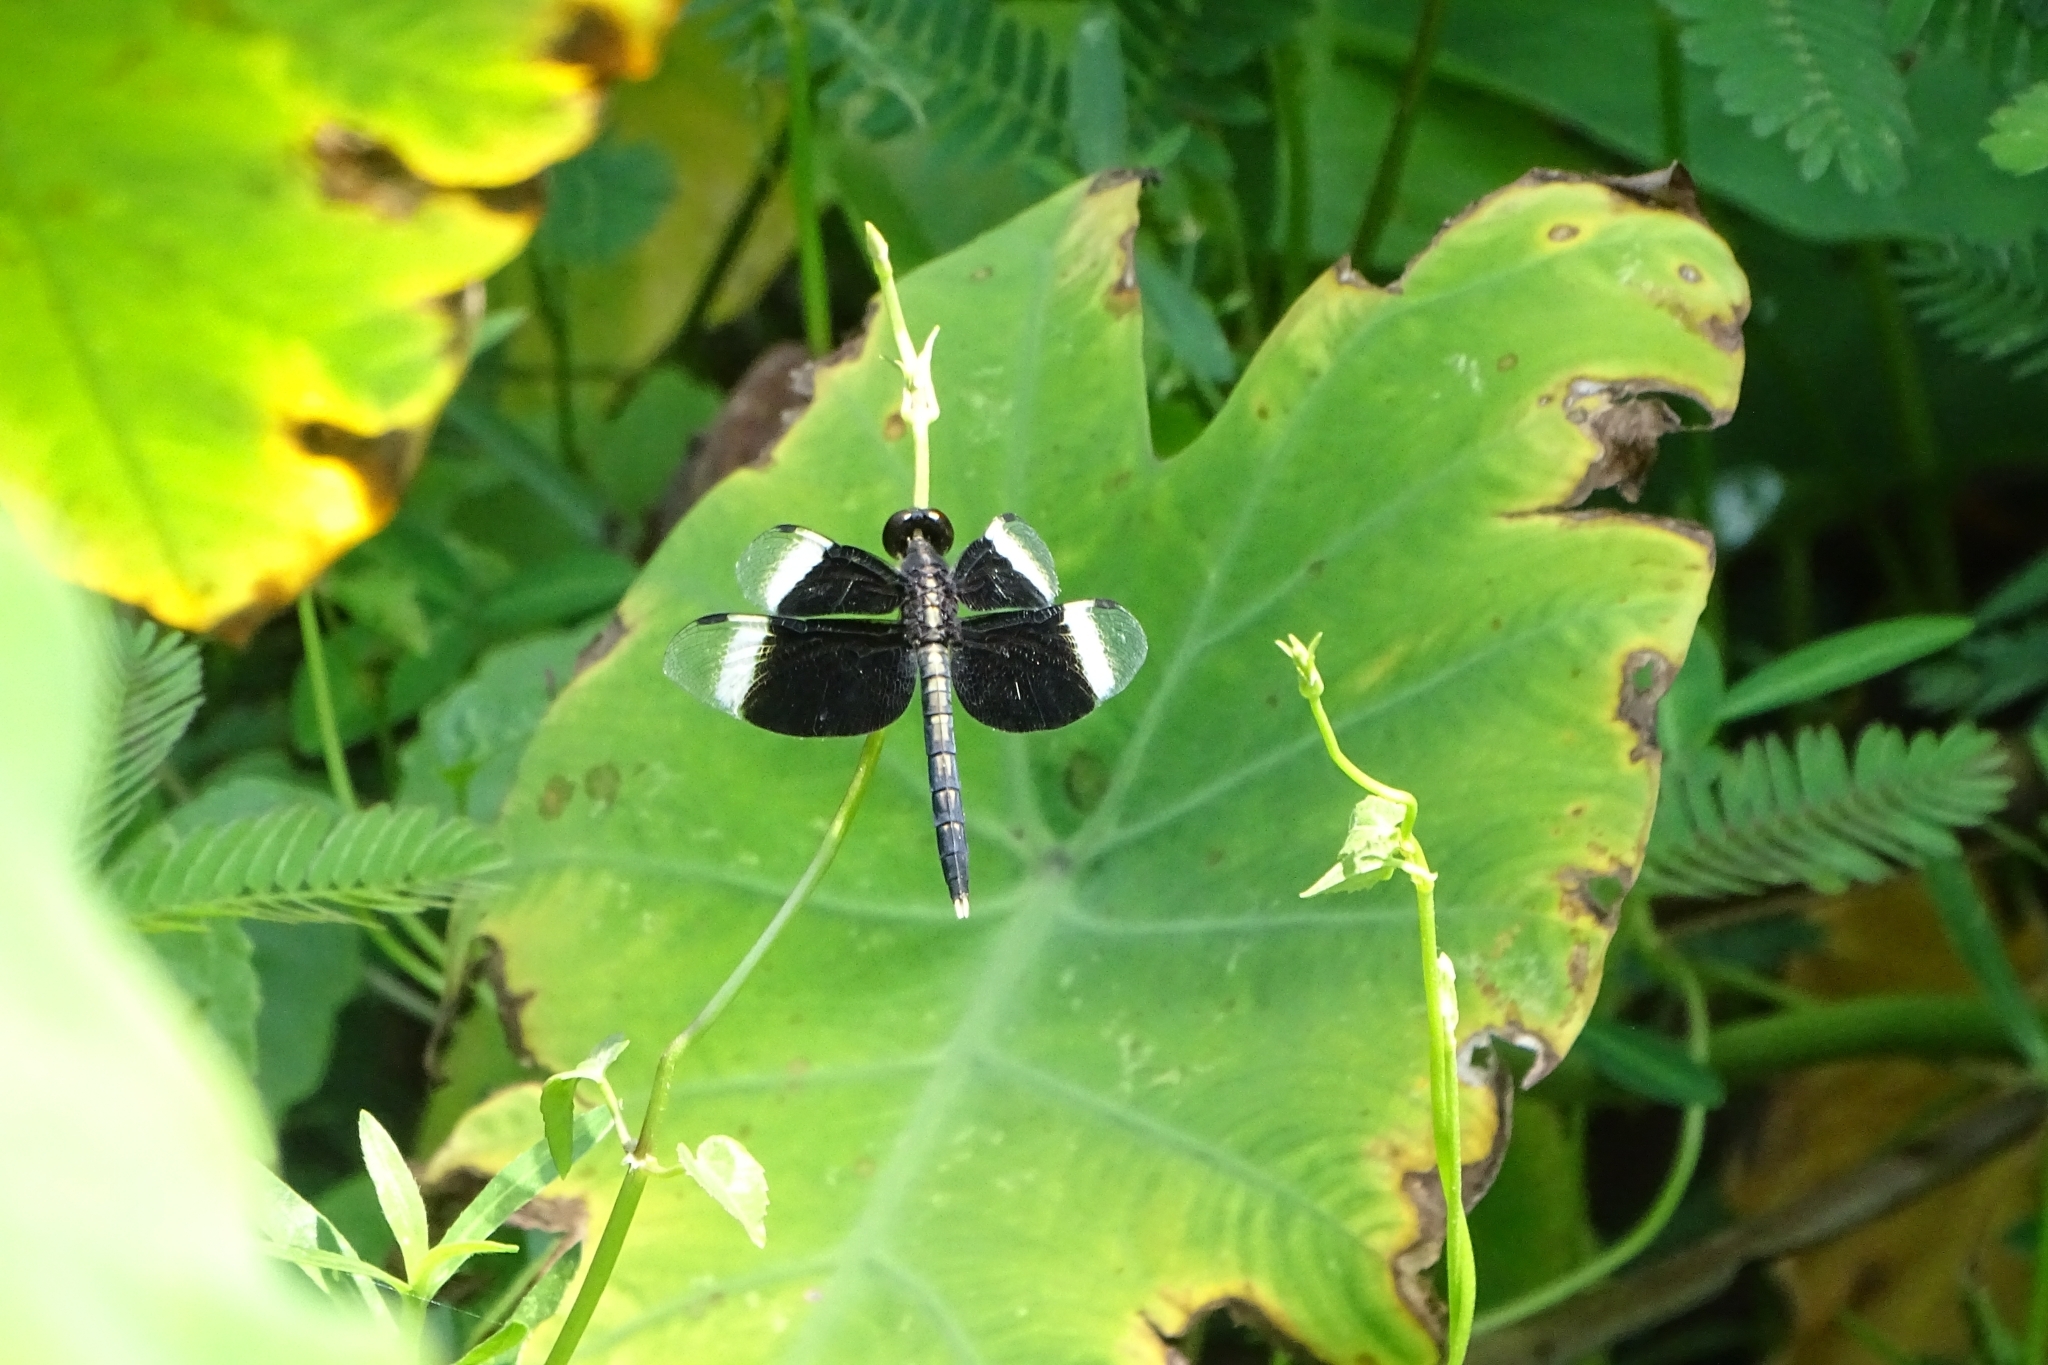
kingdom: Animalia
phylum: Arthropoda
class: Insecta
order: Odonata
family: Libellulidae
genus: Neurothemis
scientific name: Neurothemis tullia
